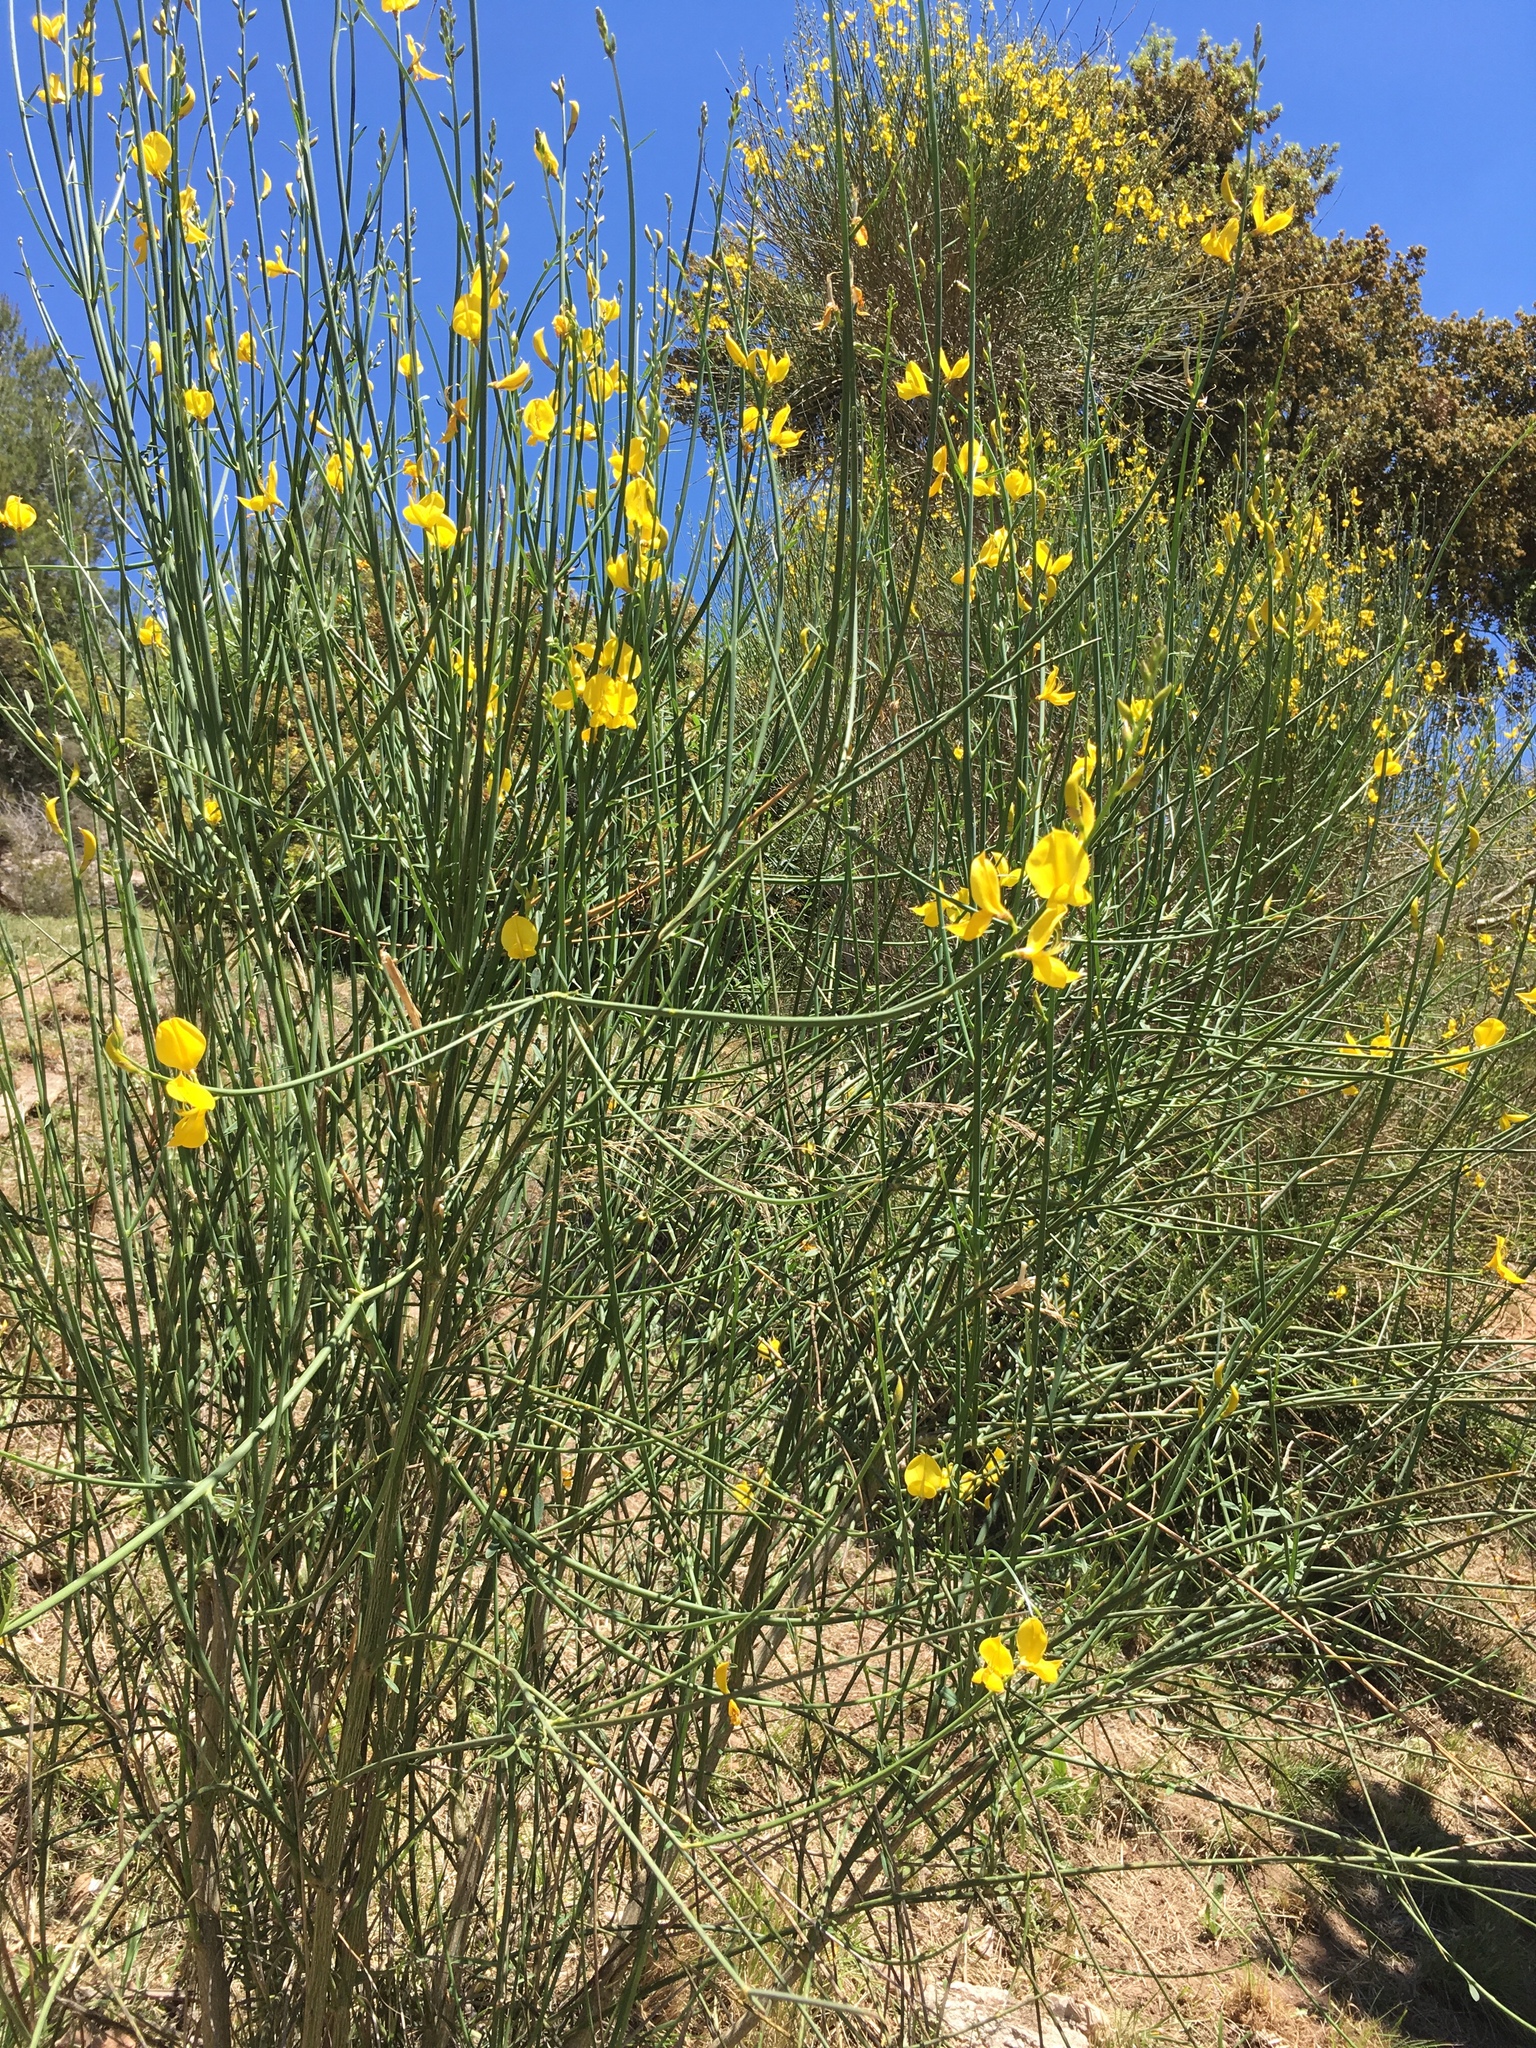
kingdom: Plantae
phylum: Tracheophyta
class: Magnoliopsida
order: Fabales
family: Fabaceae
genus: Spartium
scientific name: Spartium junceum
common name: Spanish broom
